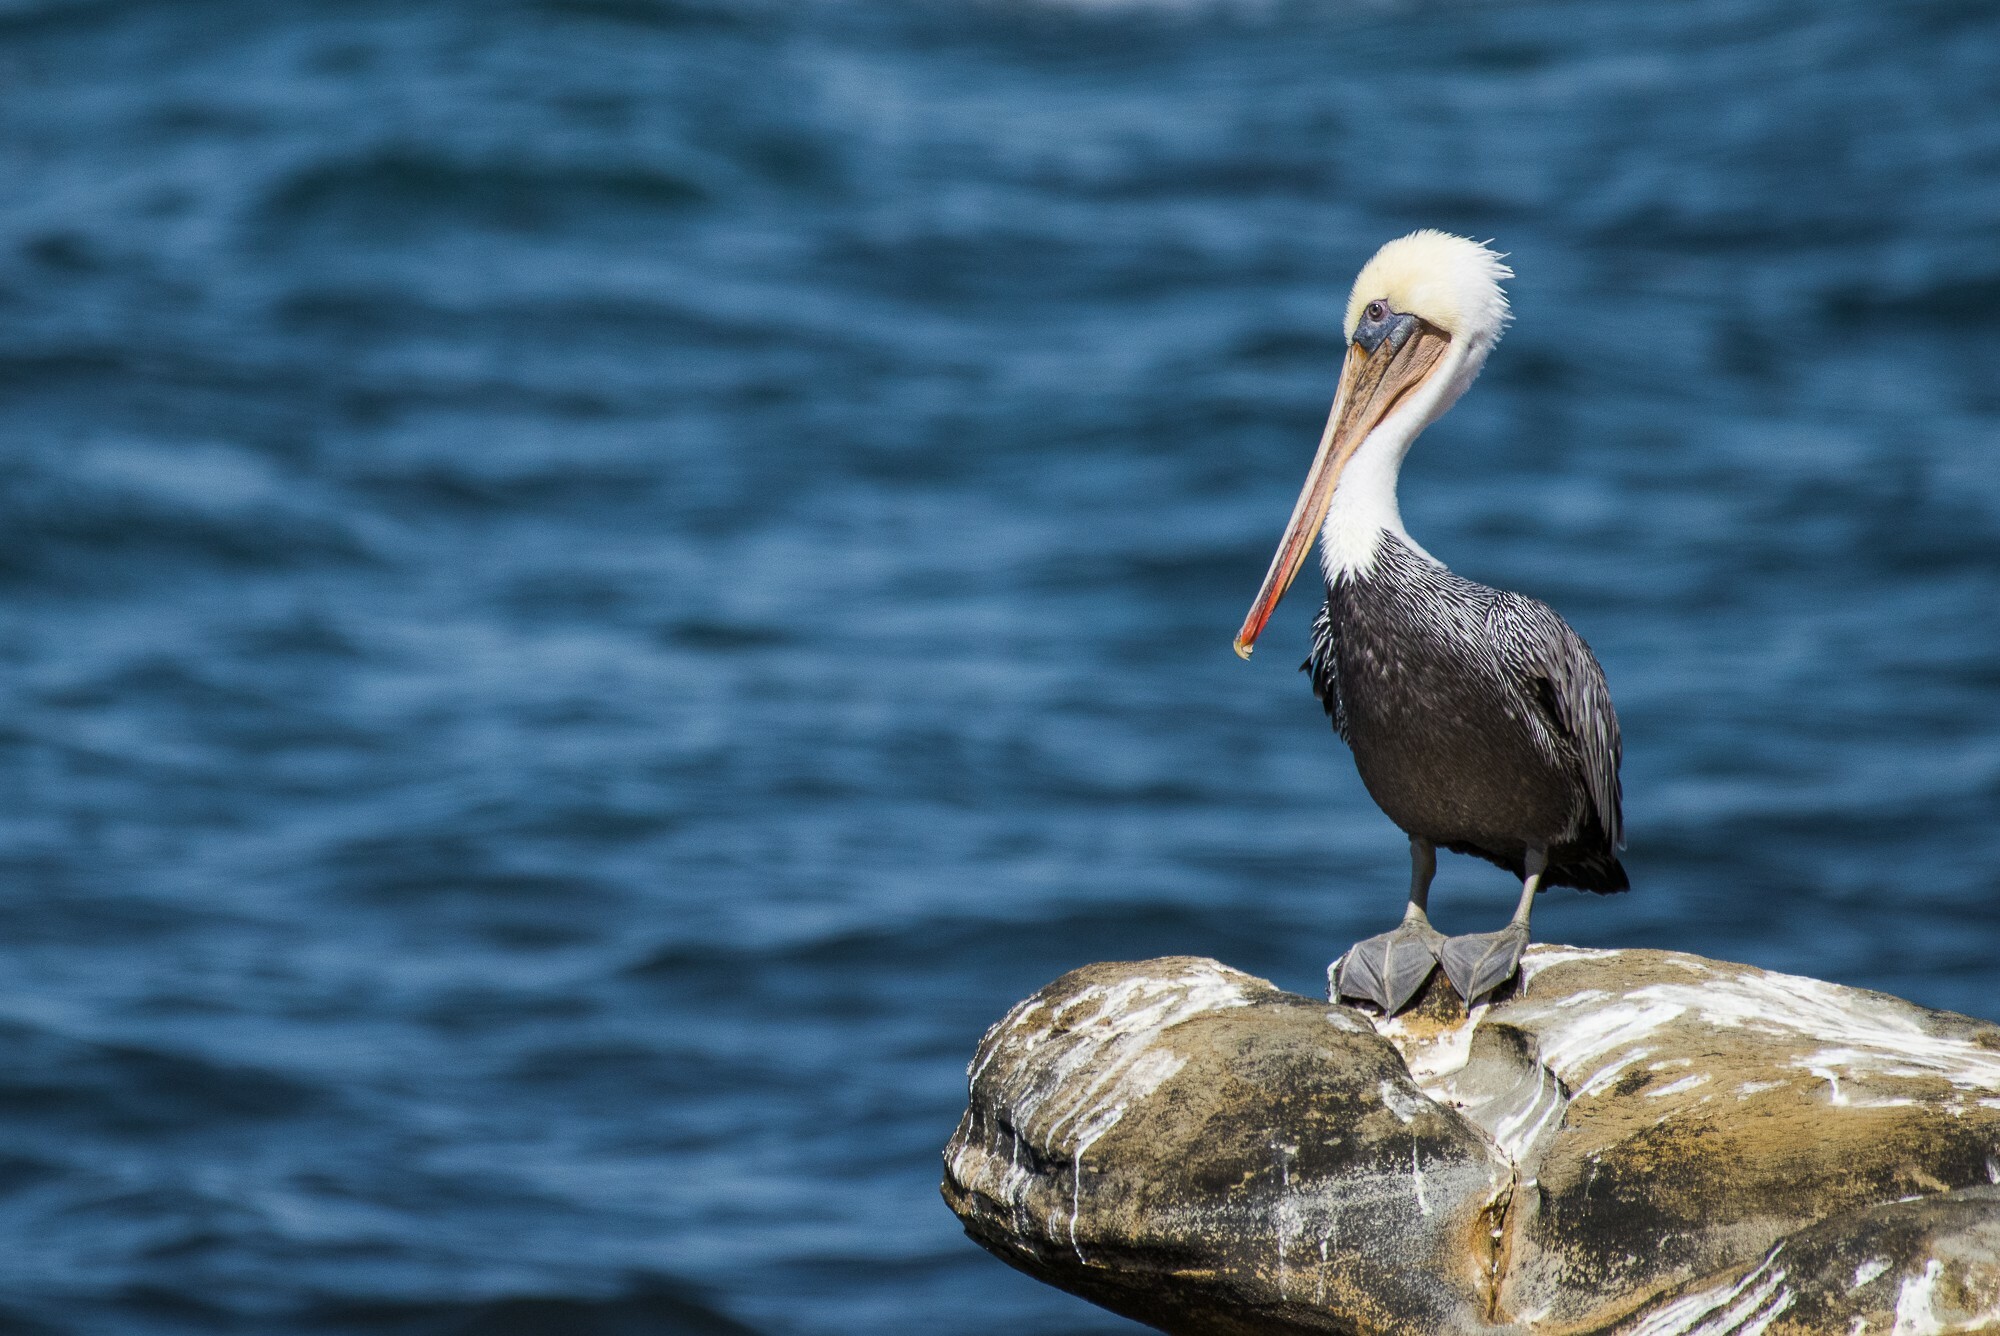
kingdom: Animalia
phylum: Chordata
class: Aves
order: Pelecaniformes
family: Pelecanidae
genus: Pelecanus
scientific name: Pelecanus occidentalis
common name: Brown pelican
